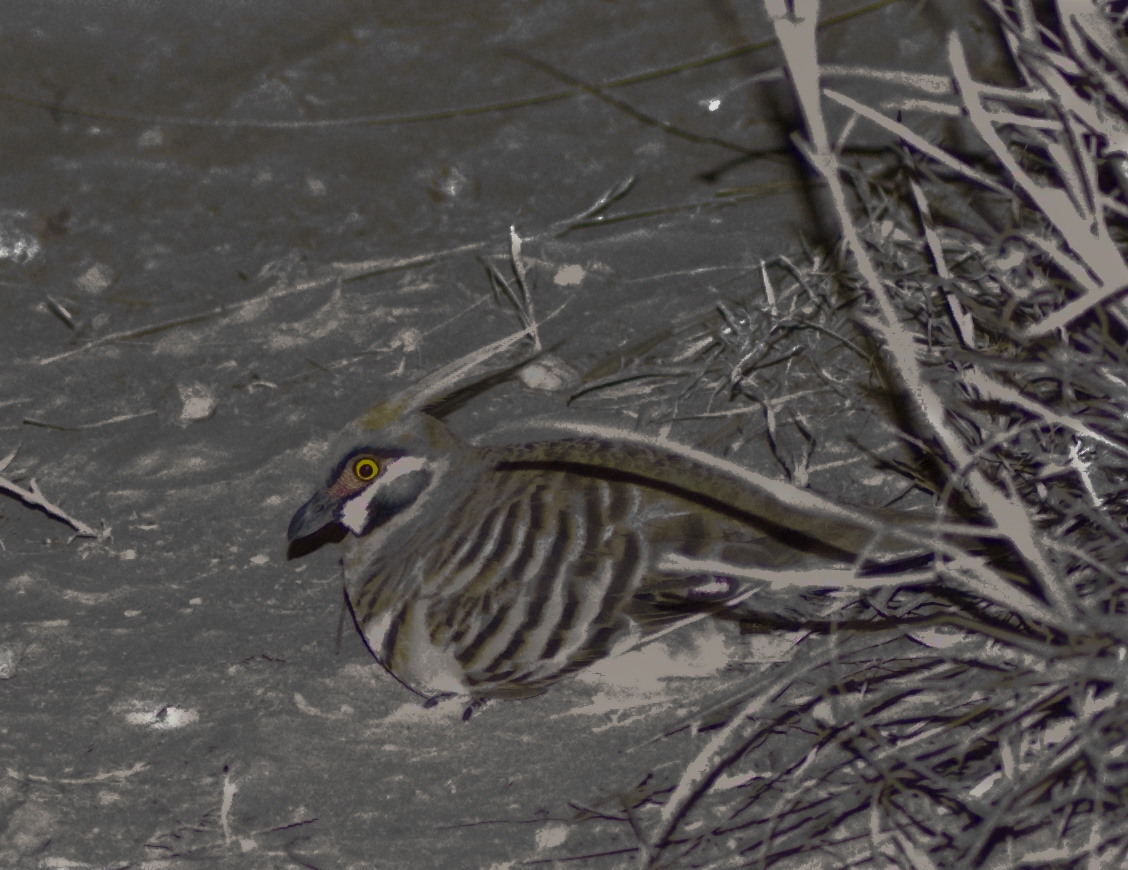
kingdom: Animalia
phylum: Chordata
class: Aves
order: Columbiformes
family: Columbidae
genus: Geophaps
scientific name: Geophaps plumifera
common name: Spinifex pigeon
